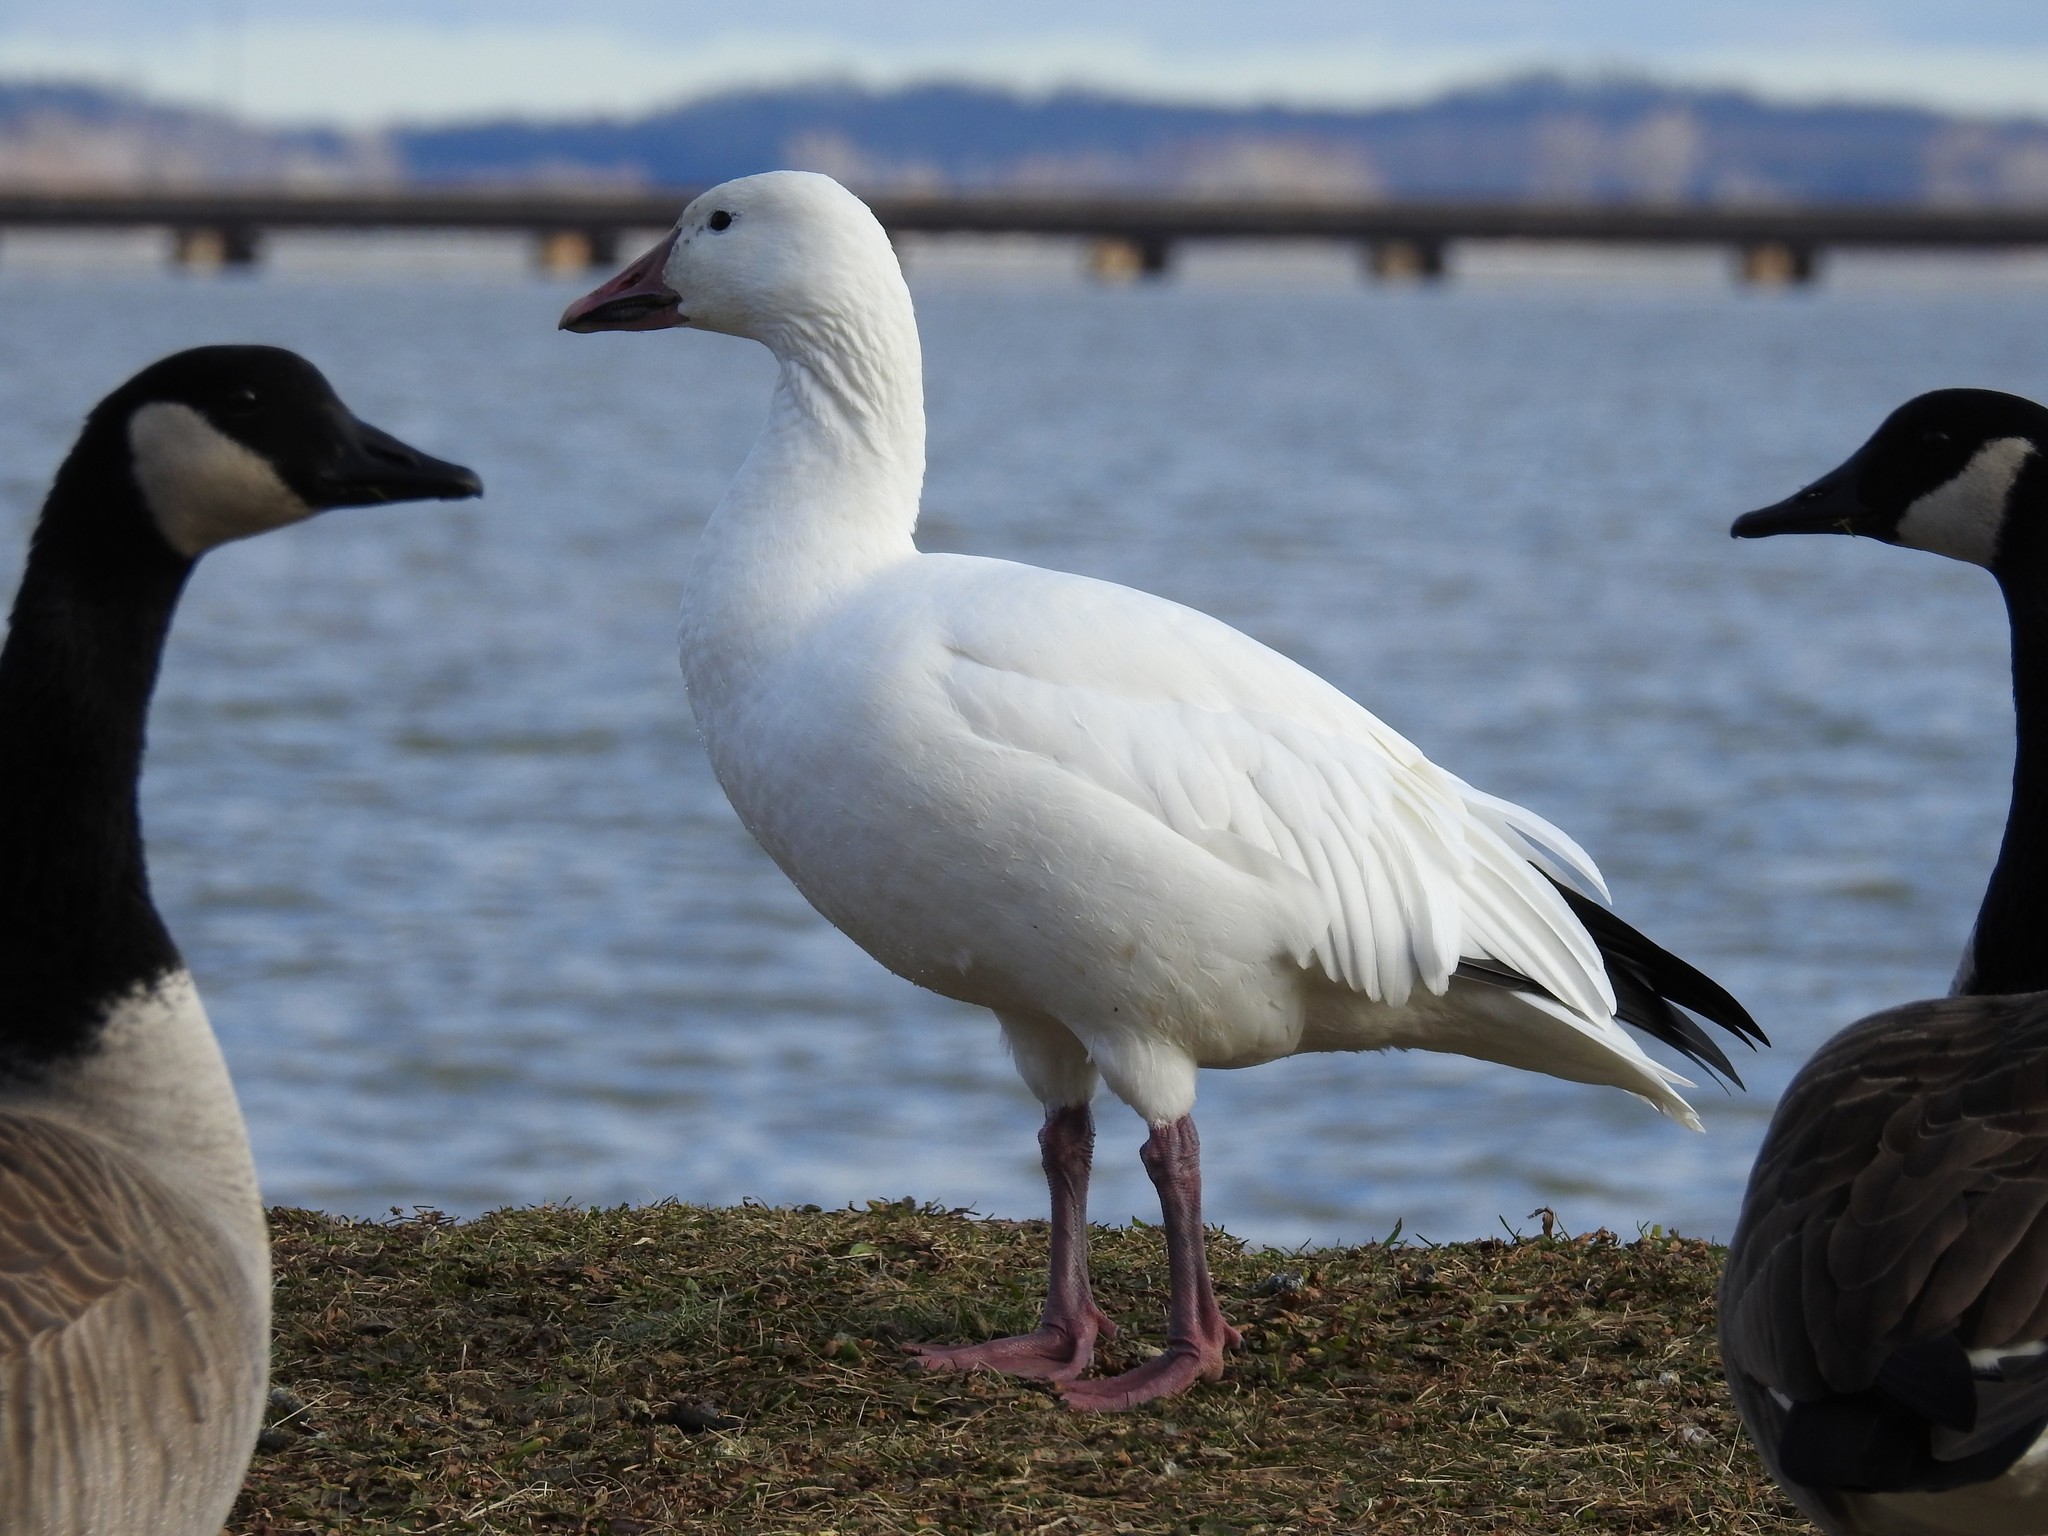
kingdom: Animalia
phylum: Chordata
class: Aves
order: Anseriformes
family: Anatidae
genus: Anser
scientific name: Anser caerulescens
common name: Snow goose
